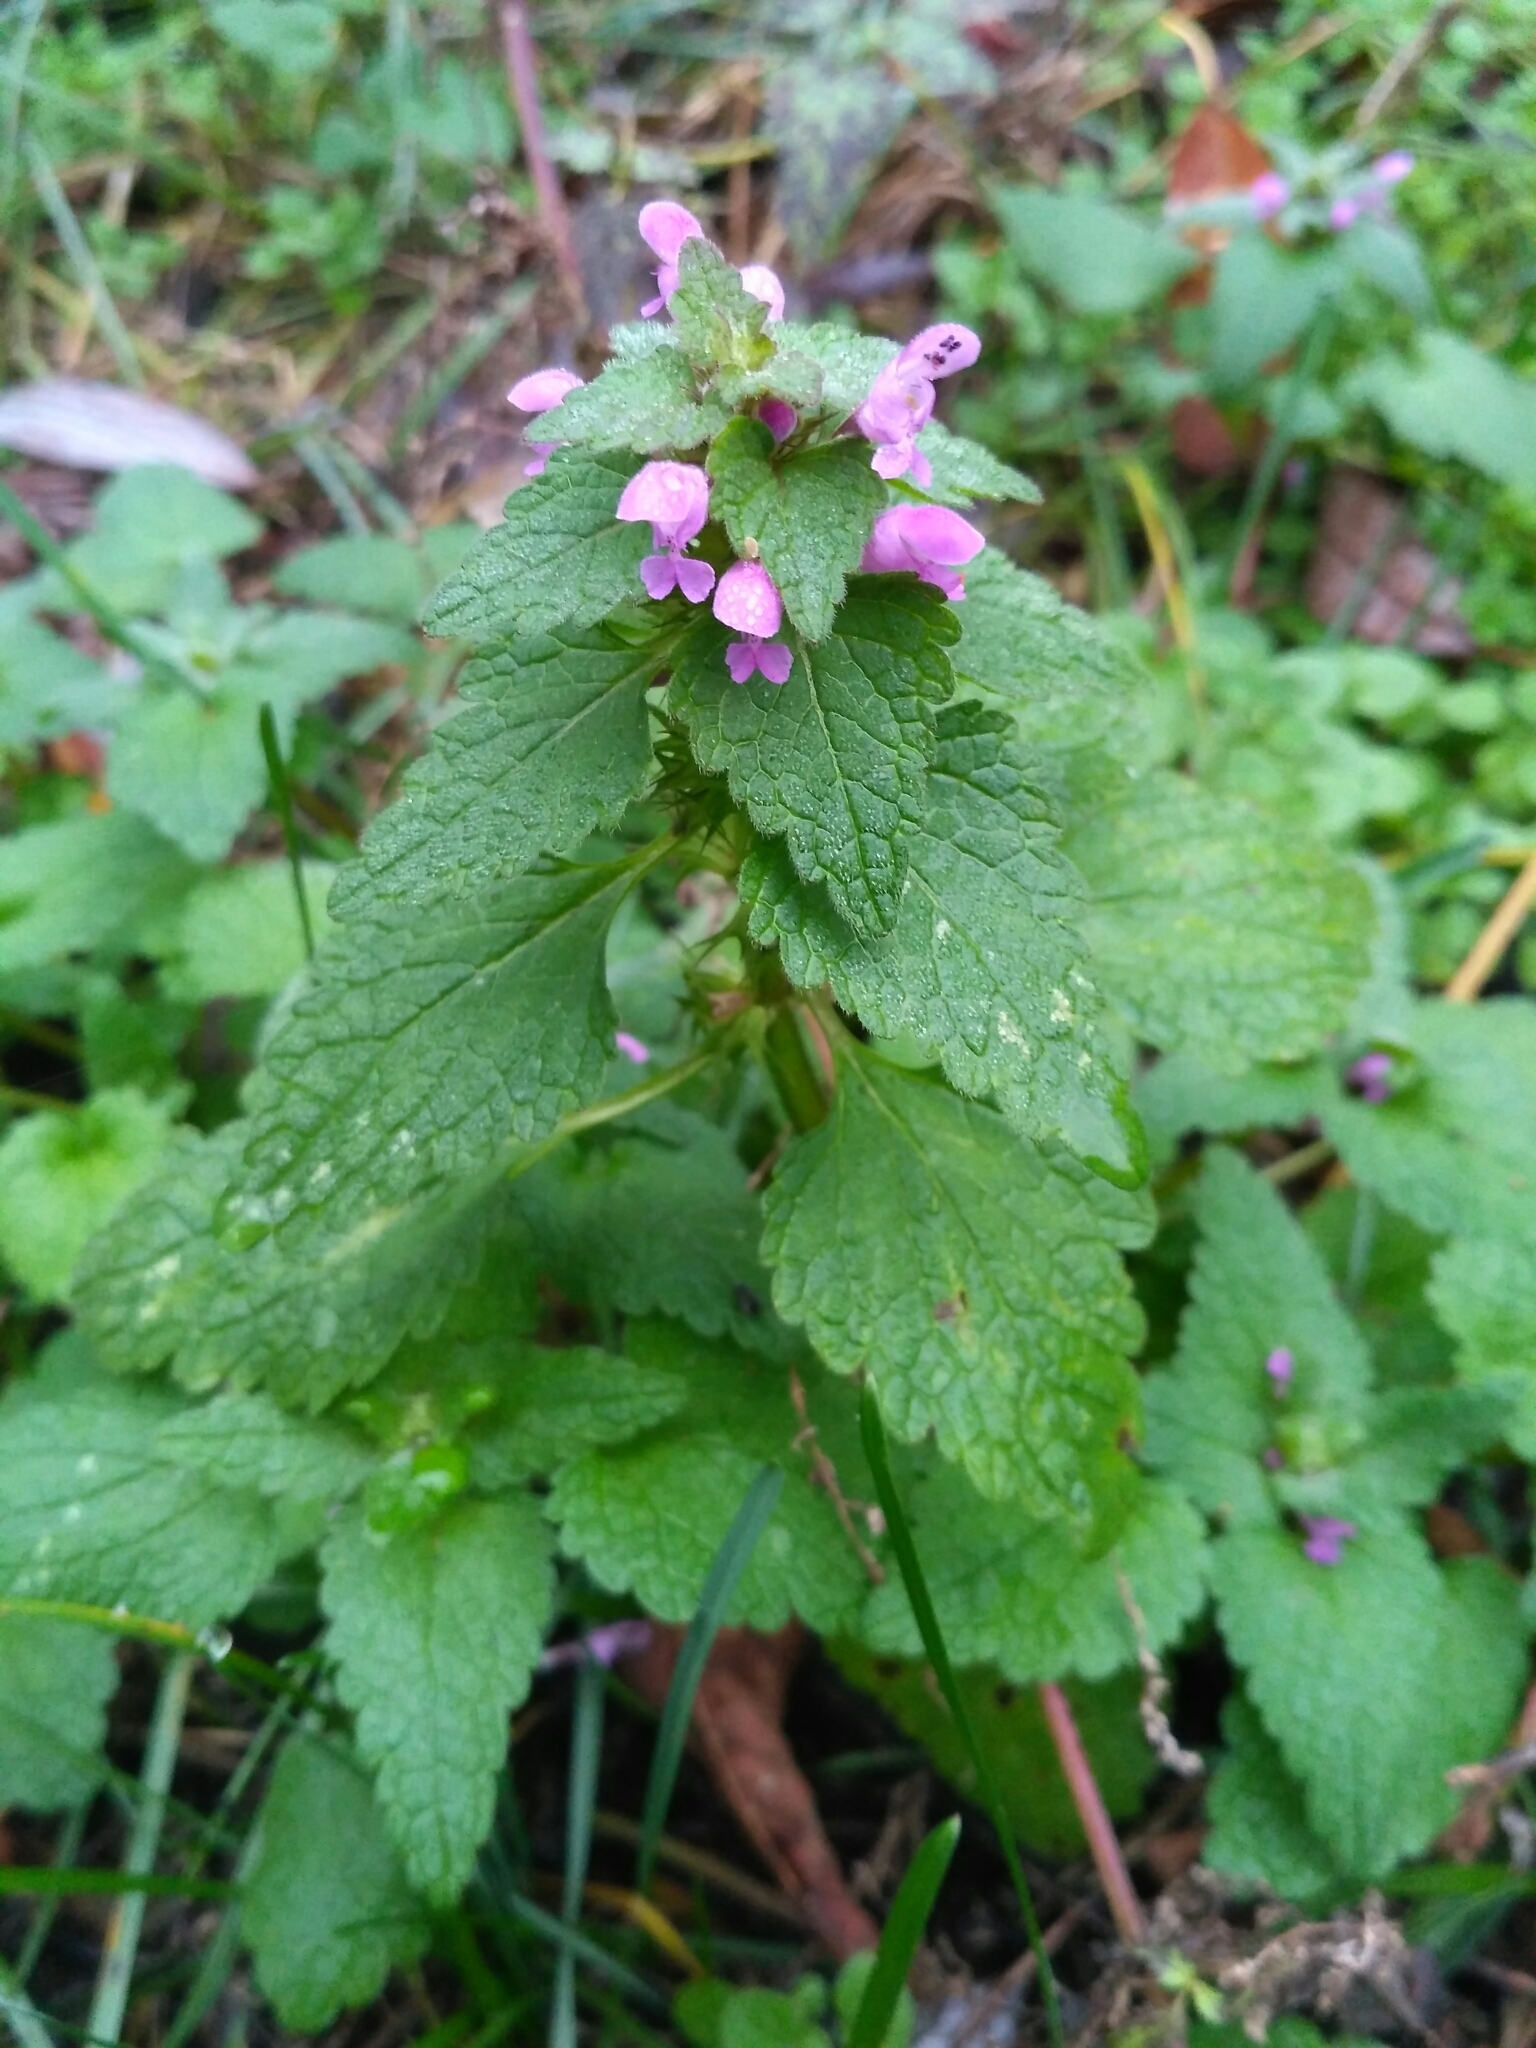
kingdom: Plantae
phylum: Tracheophyta
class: Magnoliopsida
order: Lamiales
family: Lamiaceae
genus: Lamium
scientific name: Lamium purpureum
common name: Red dead-nettle
